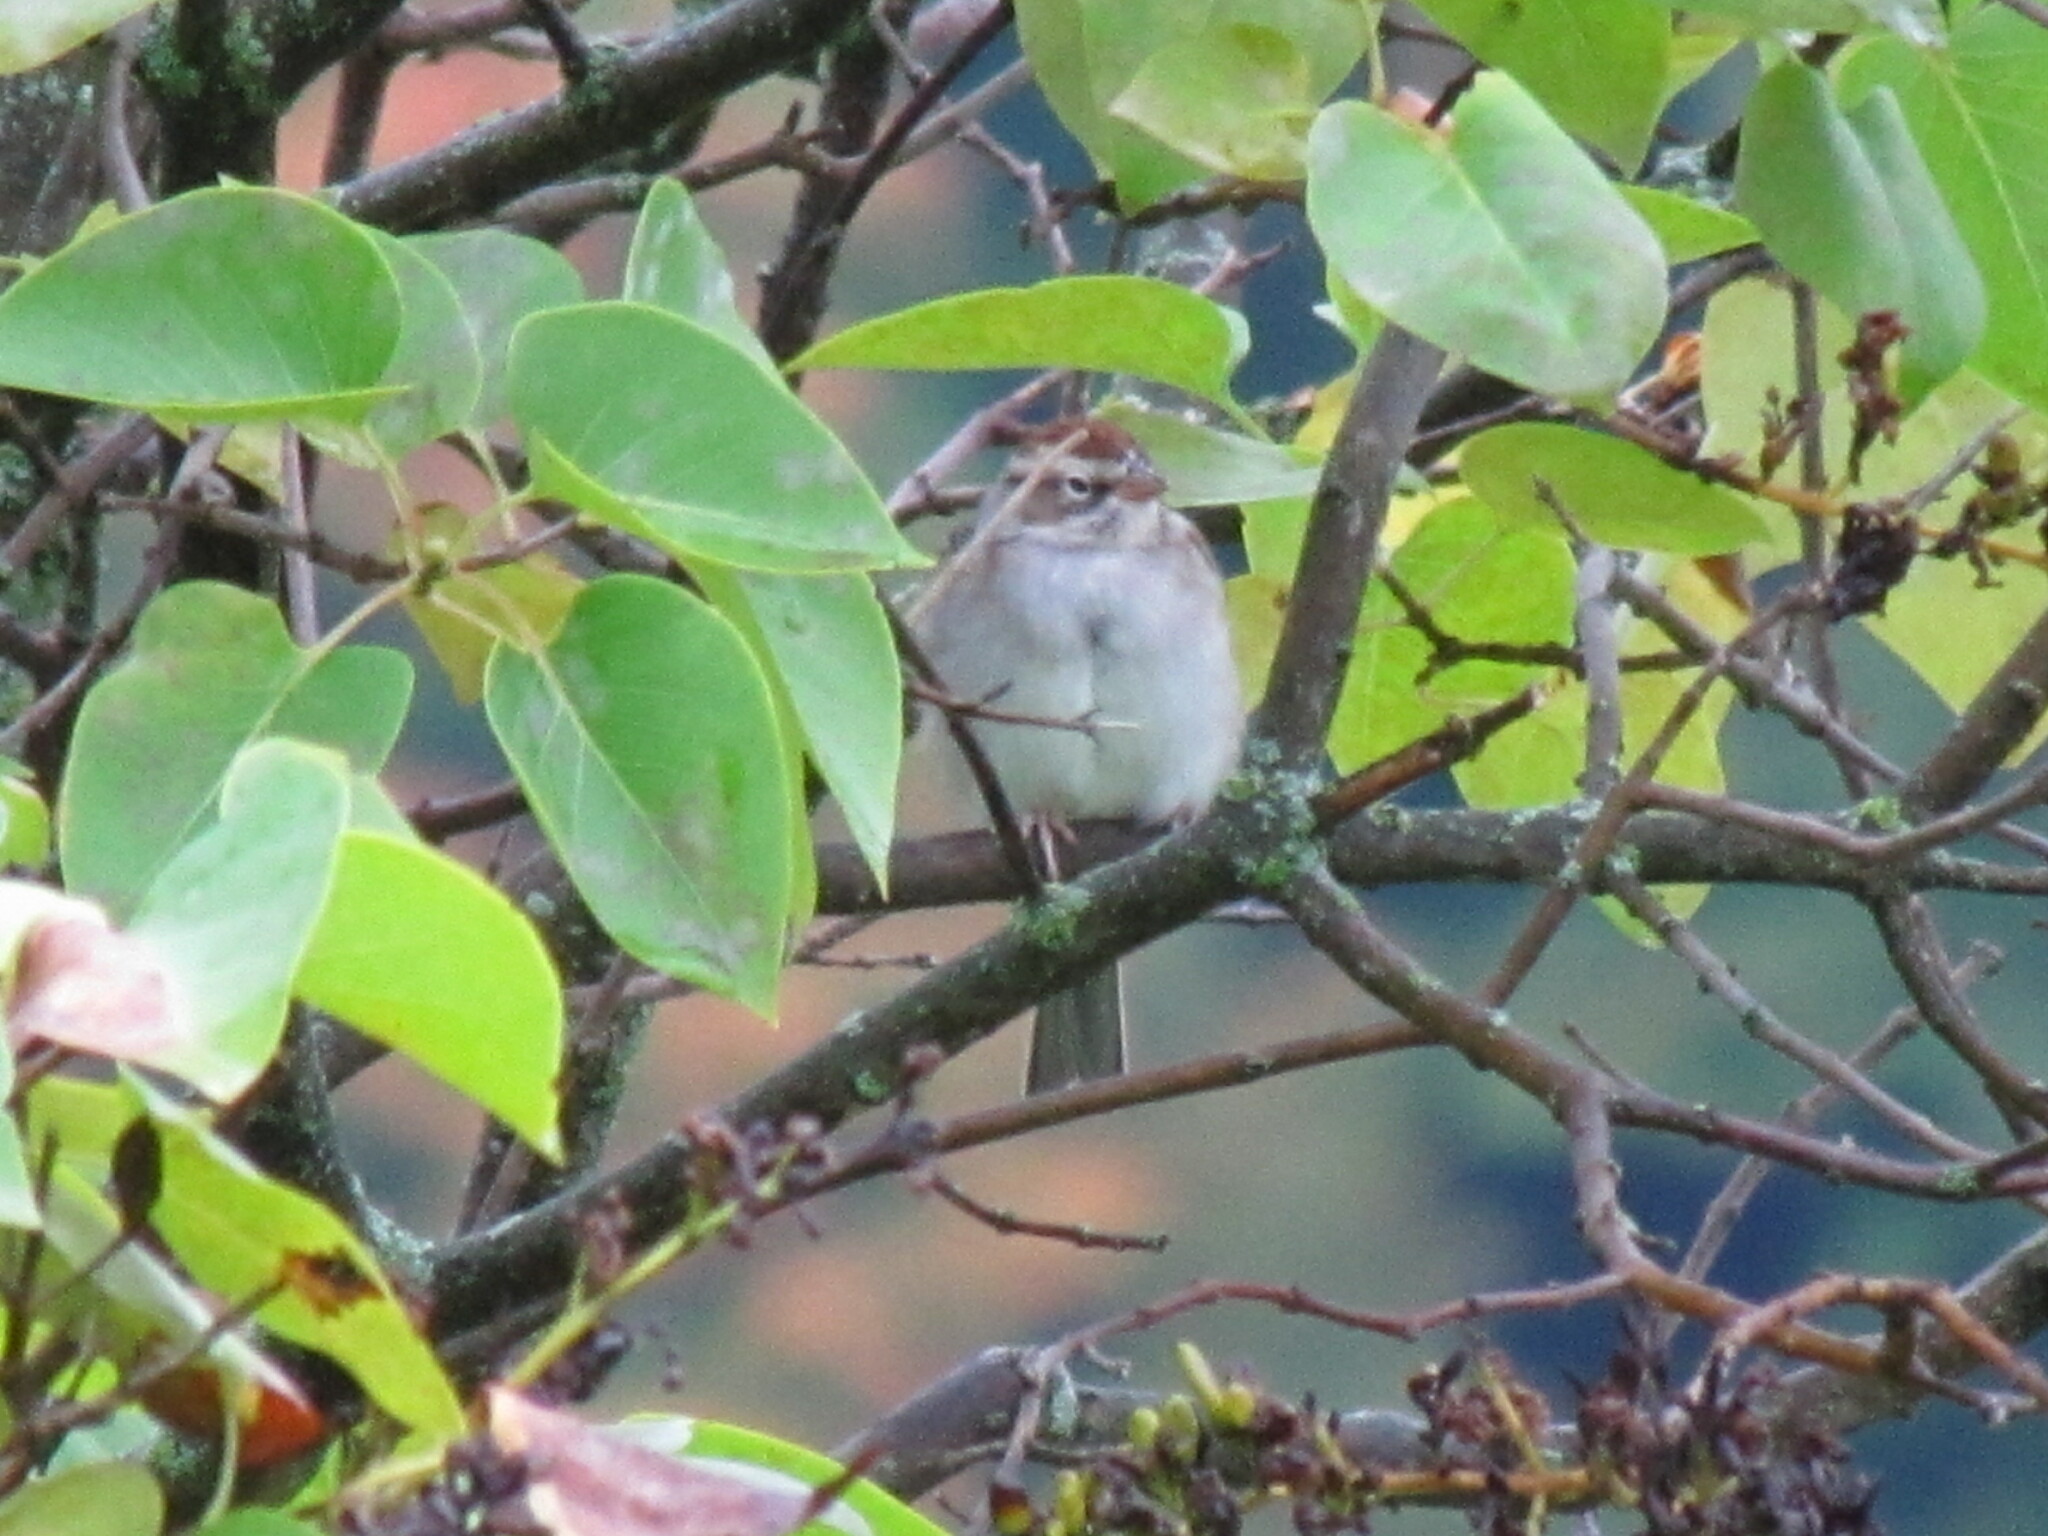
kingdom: Animalia
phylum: Chordata
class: Aves
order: Passeriformes
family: Passerellidae
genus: Spizella
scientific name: Spizella passerina
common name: Chipping sparrow
